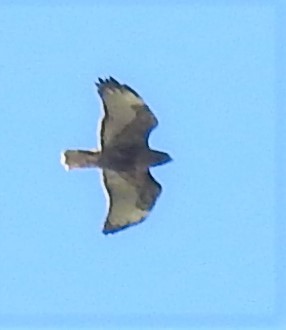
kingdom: Animalia
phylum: Chordata
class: Aves
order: Accipitriformes
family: Accipitridae
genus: Buteo
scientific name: Buteo jamaicensis
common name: Red-tailed hawk
